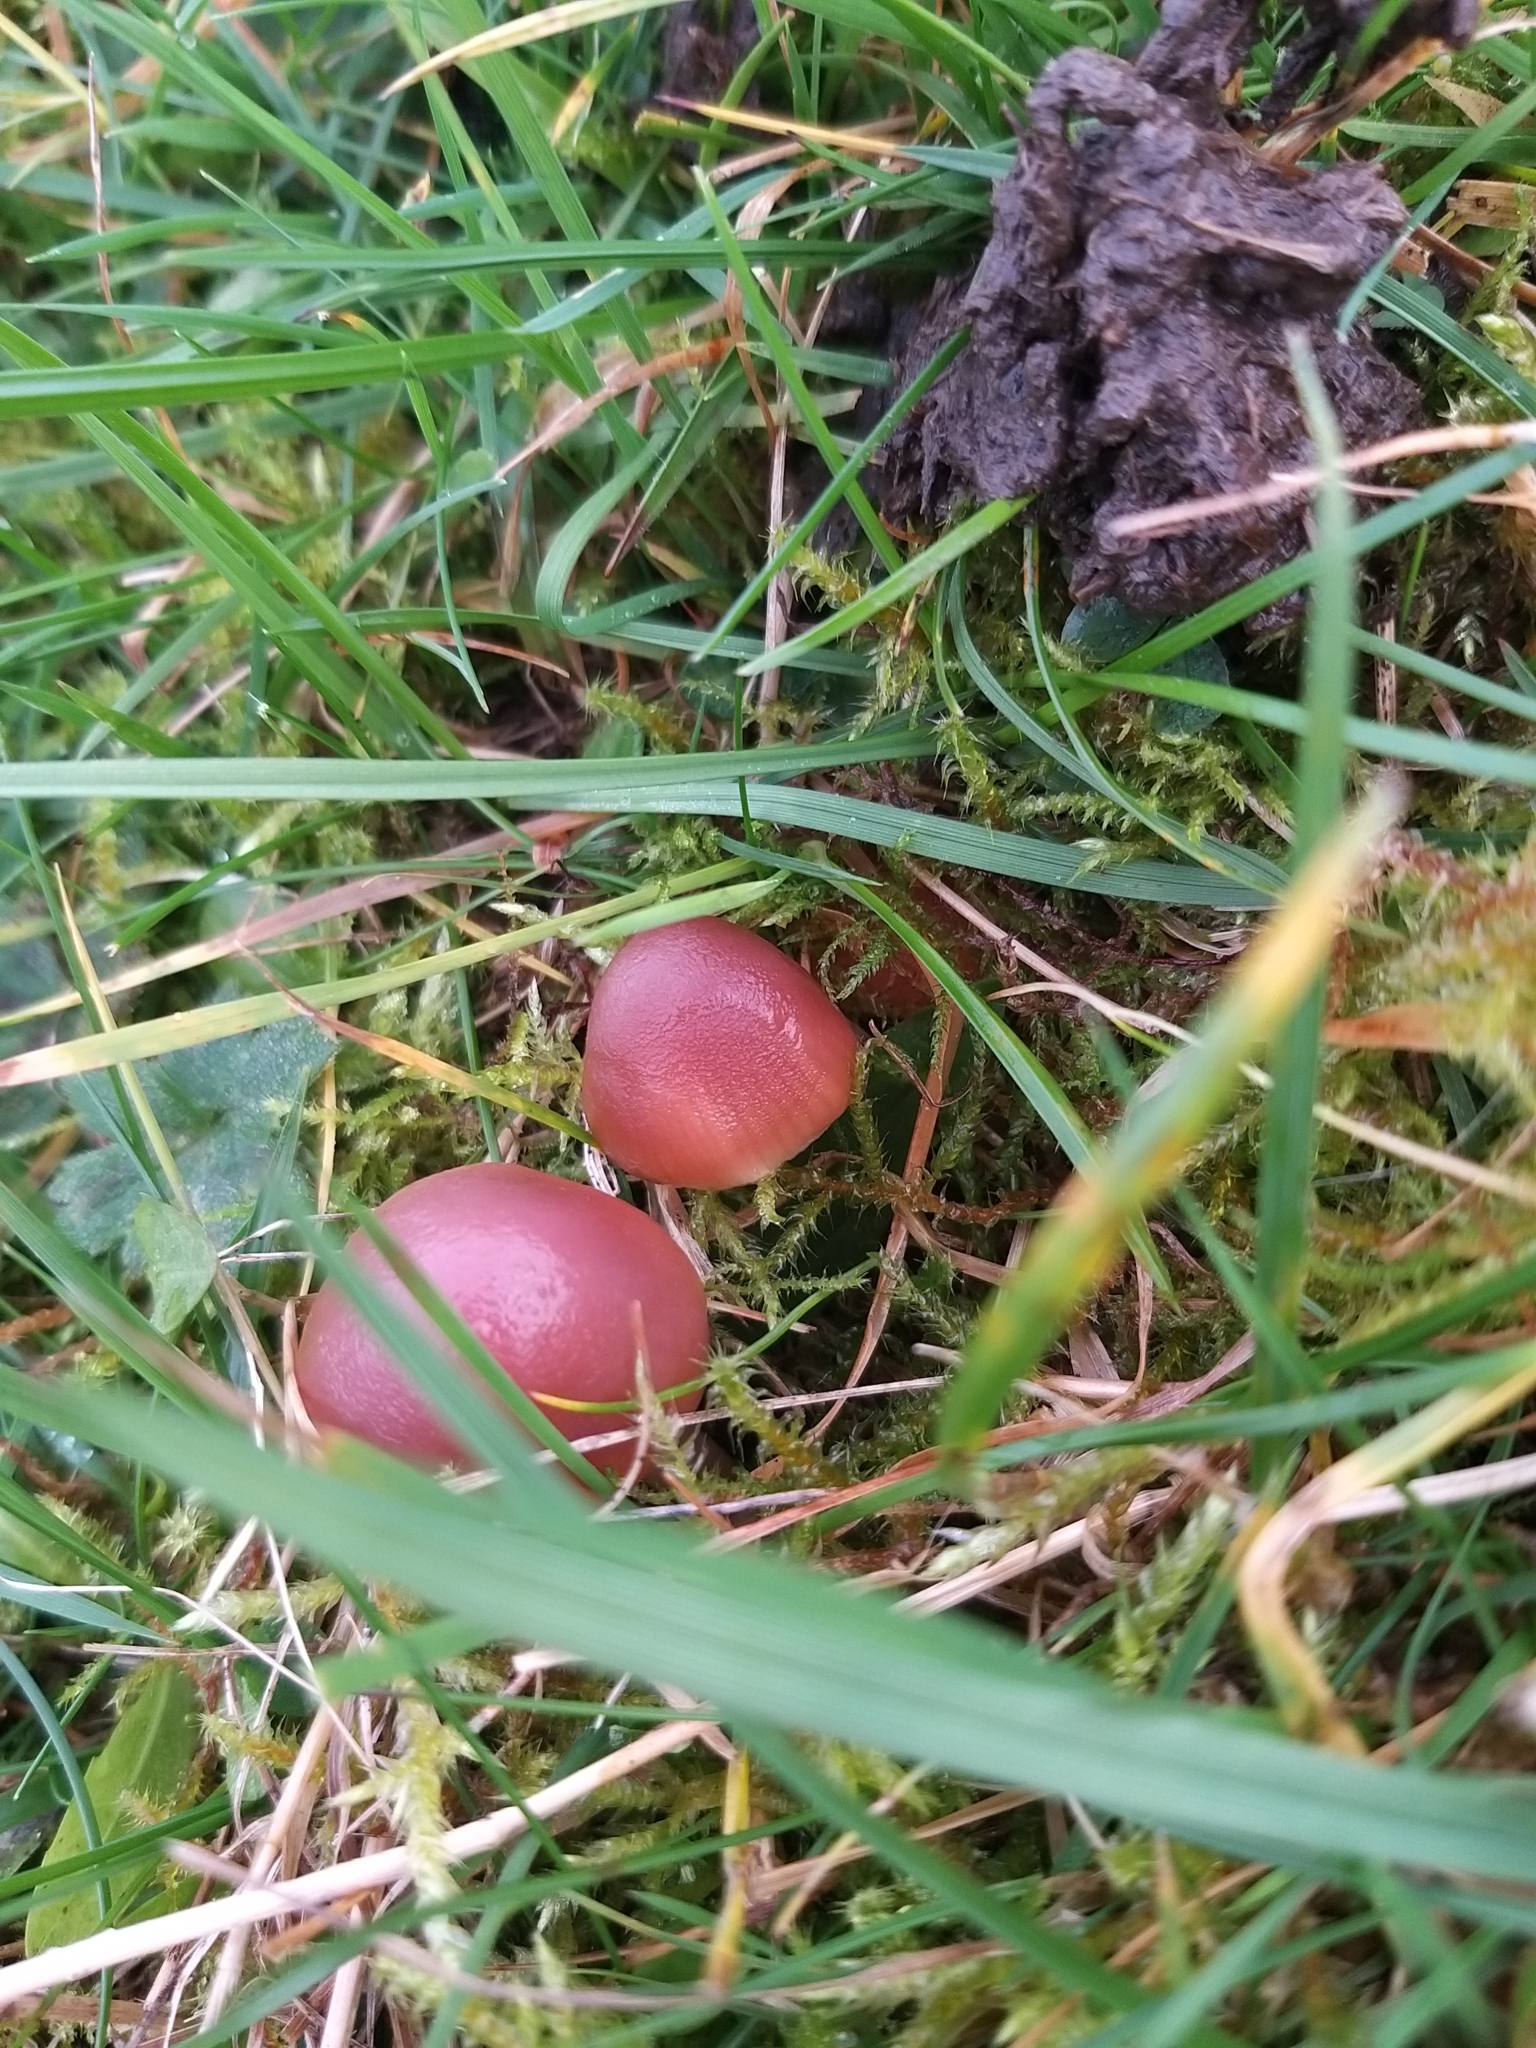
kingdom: Fungi
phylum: Basidiomycota
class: Agaricomycetes
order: Agaricales
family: Hygrophoraceae
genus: Gliophorus
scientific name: Gliophorus reginae
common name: Jubilee waxcap
